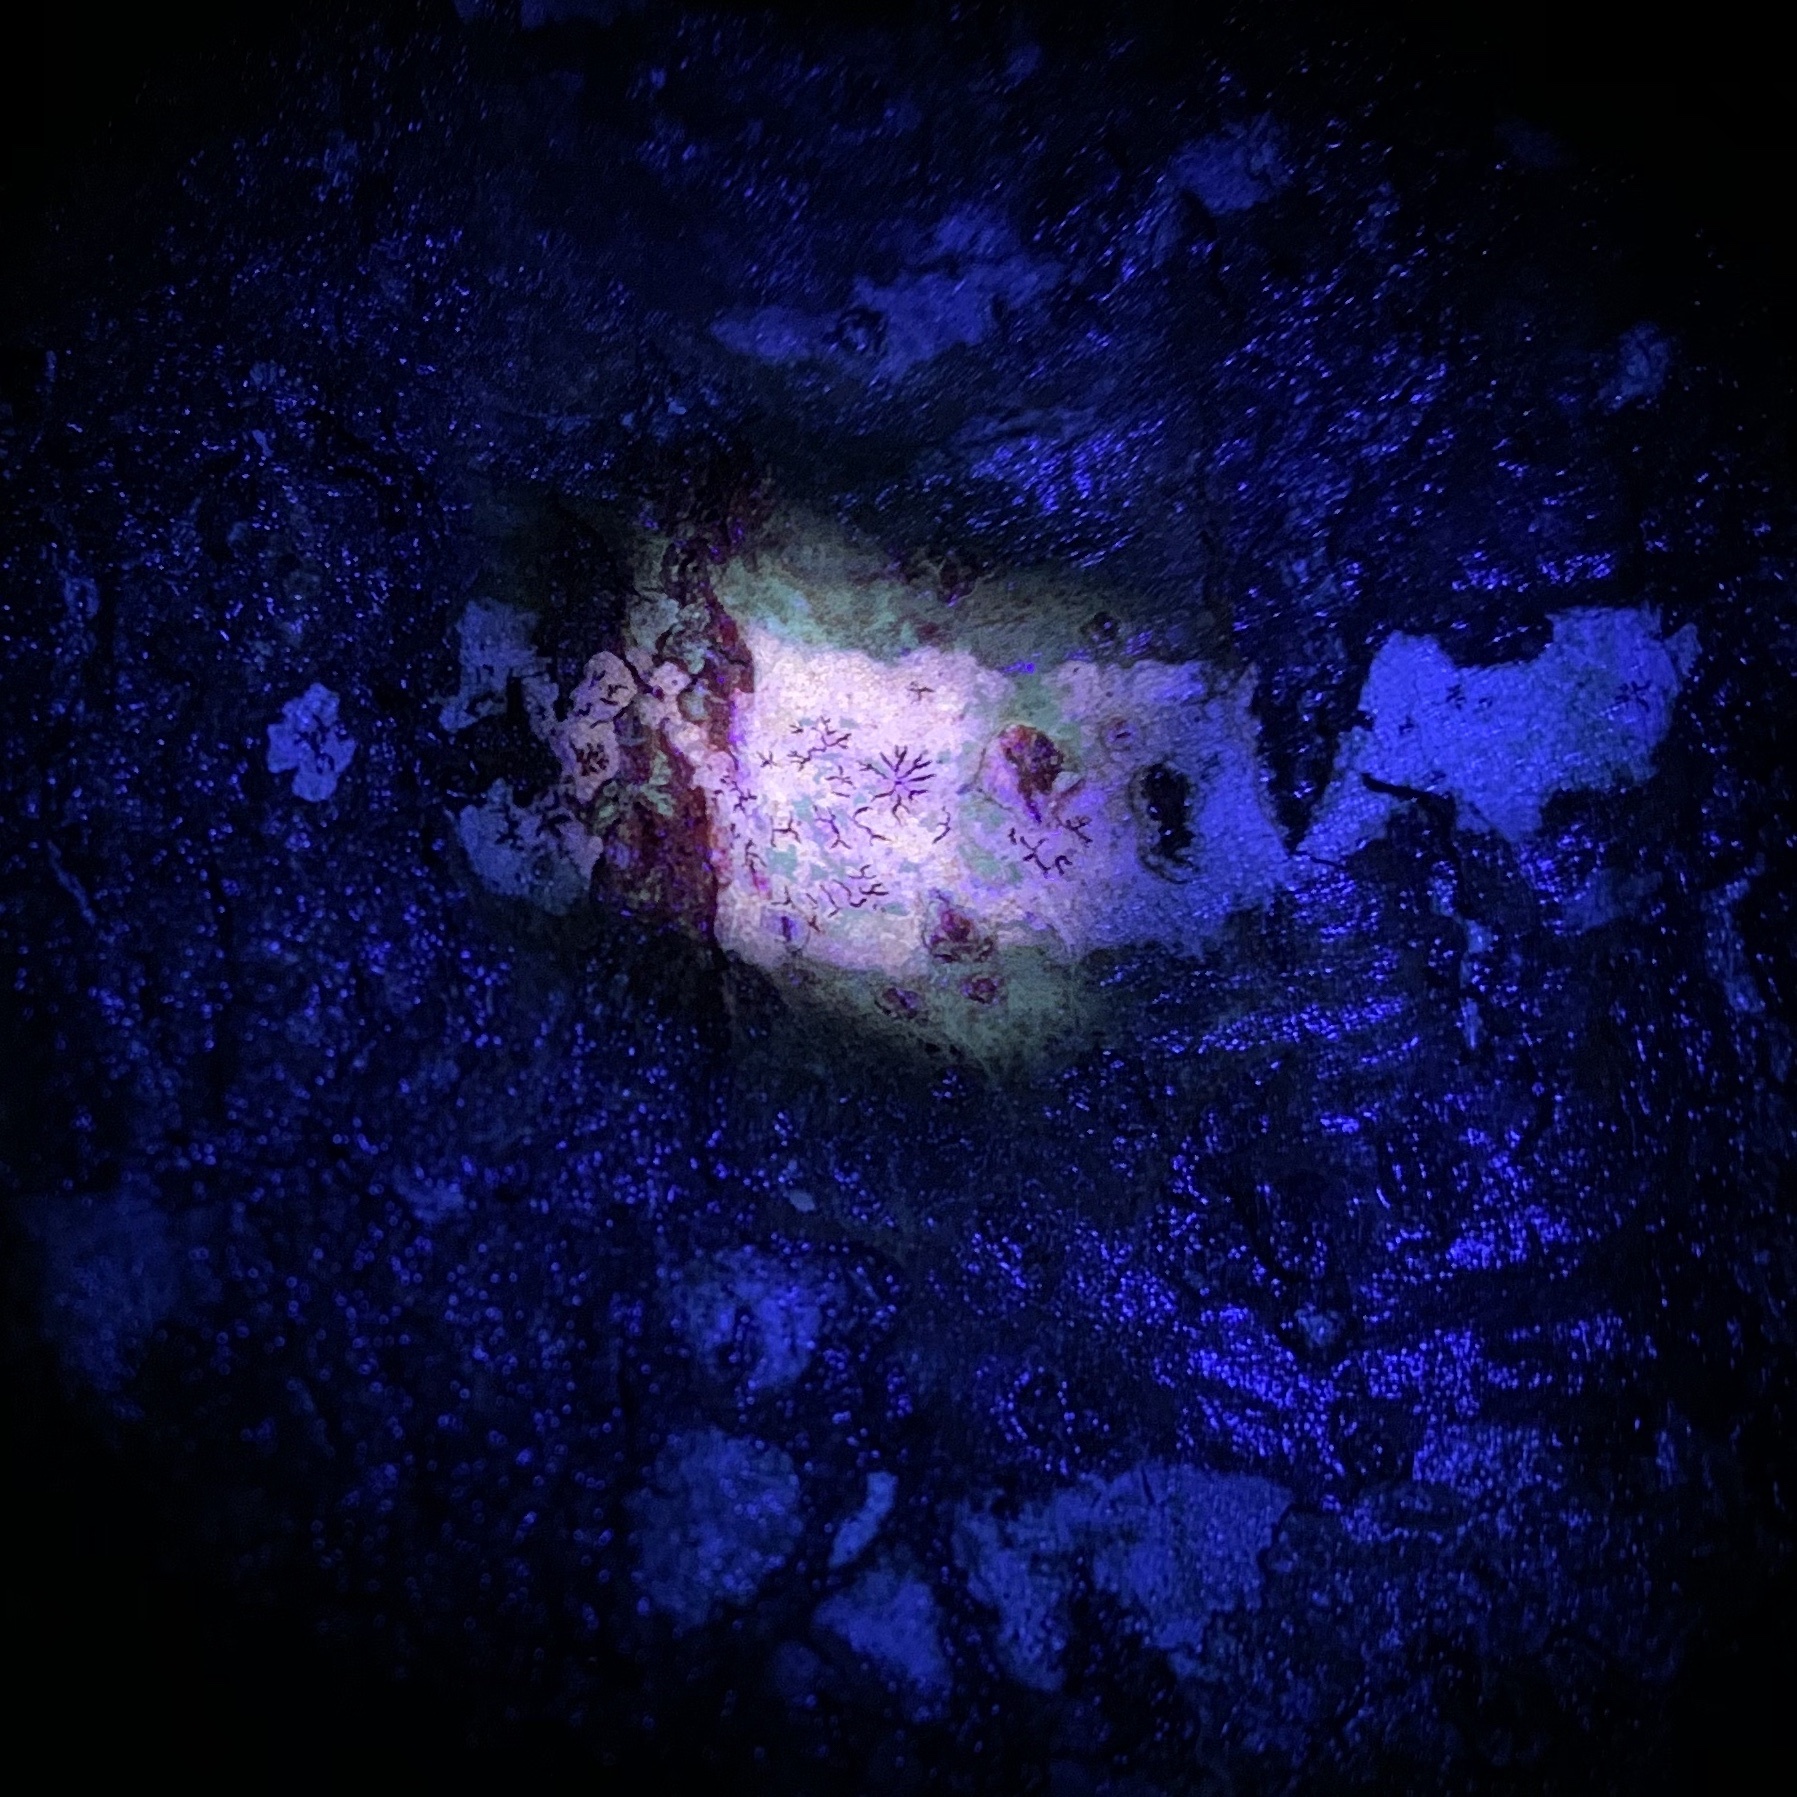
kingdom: Fungi
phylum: Ascomycota
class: Lecanoromycetes
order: Ostropales
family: Graphidaceae
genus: Graphis
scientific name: Graphis
